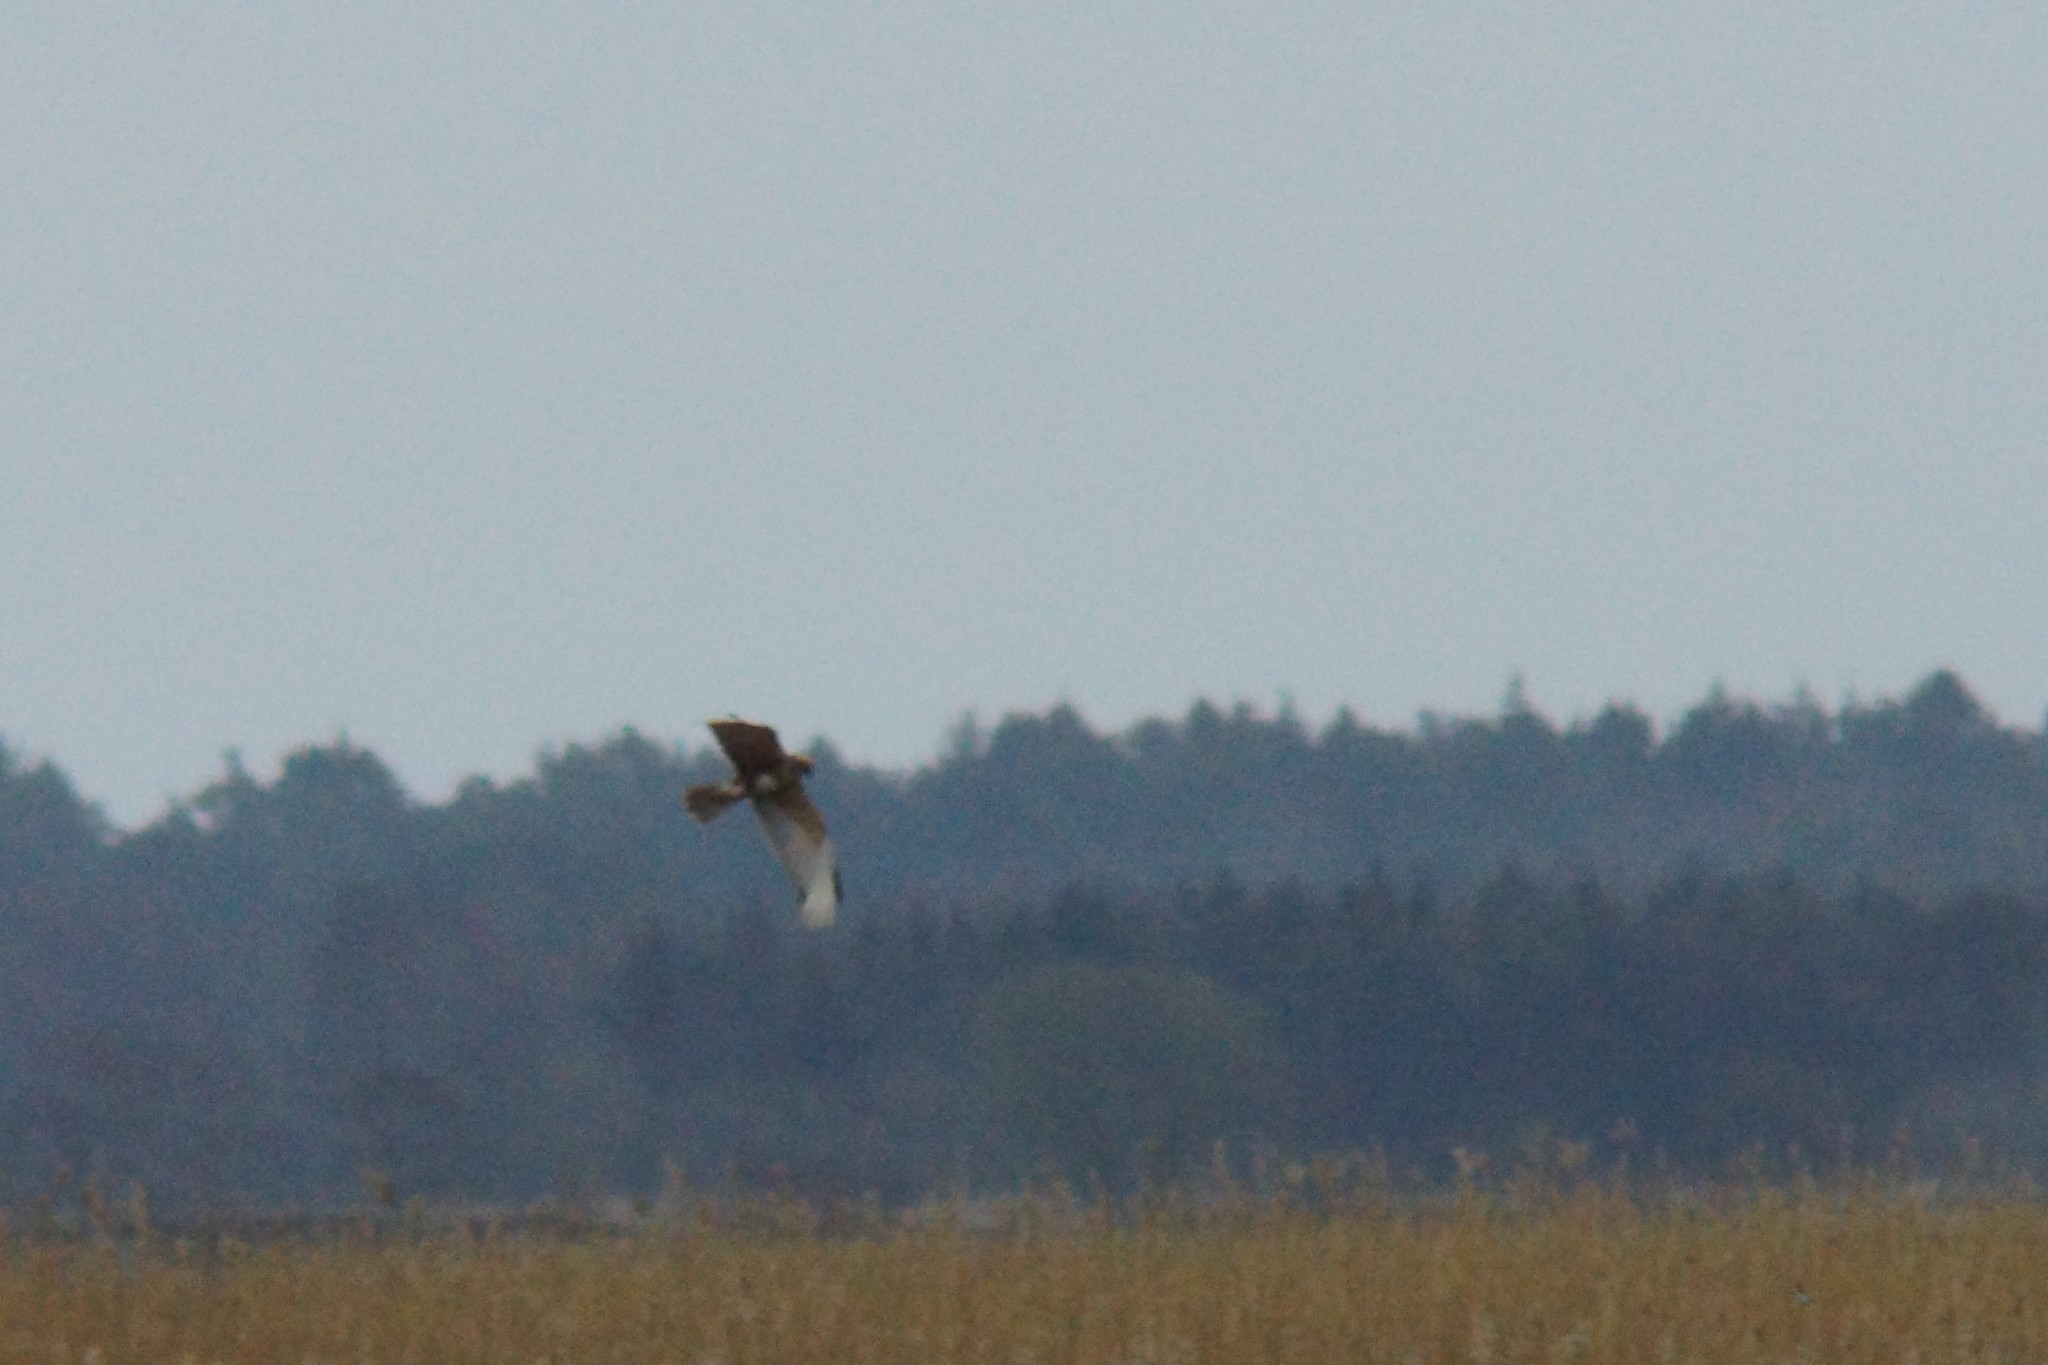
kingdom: Animalia
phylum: Chordata
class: Aves
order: Accipitriformes
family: Accipitridae
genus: Circus
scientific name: Circus aeruginosus
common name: Western marsh harrier
